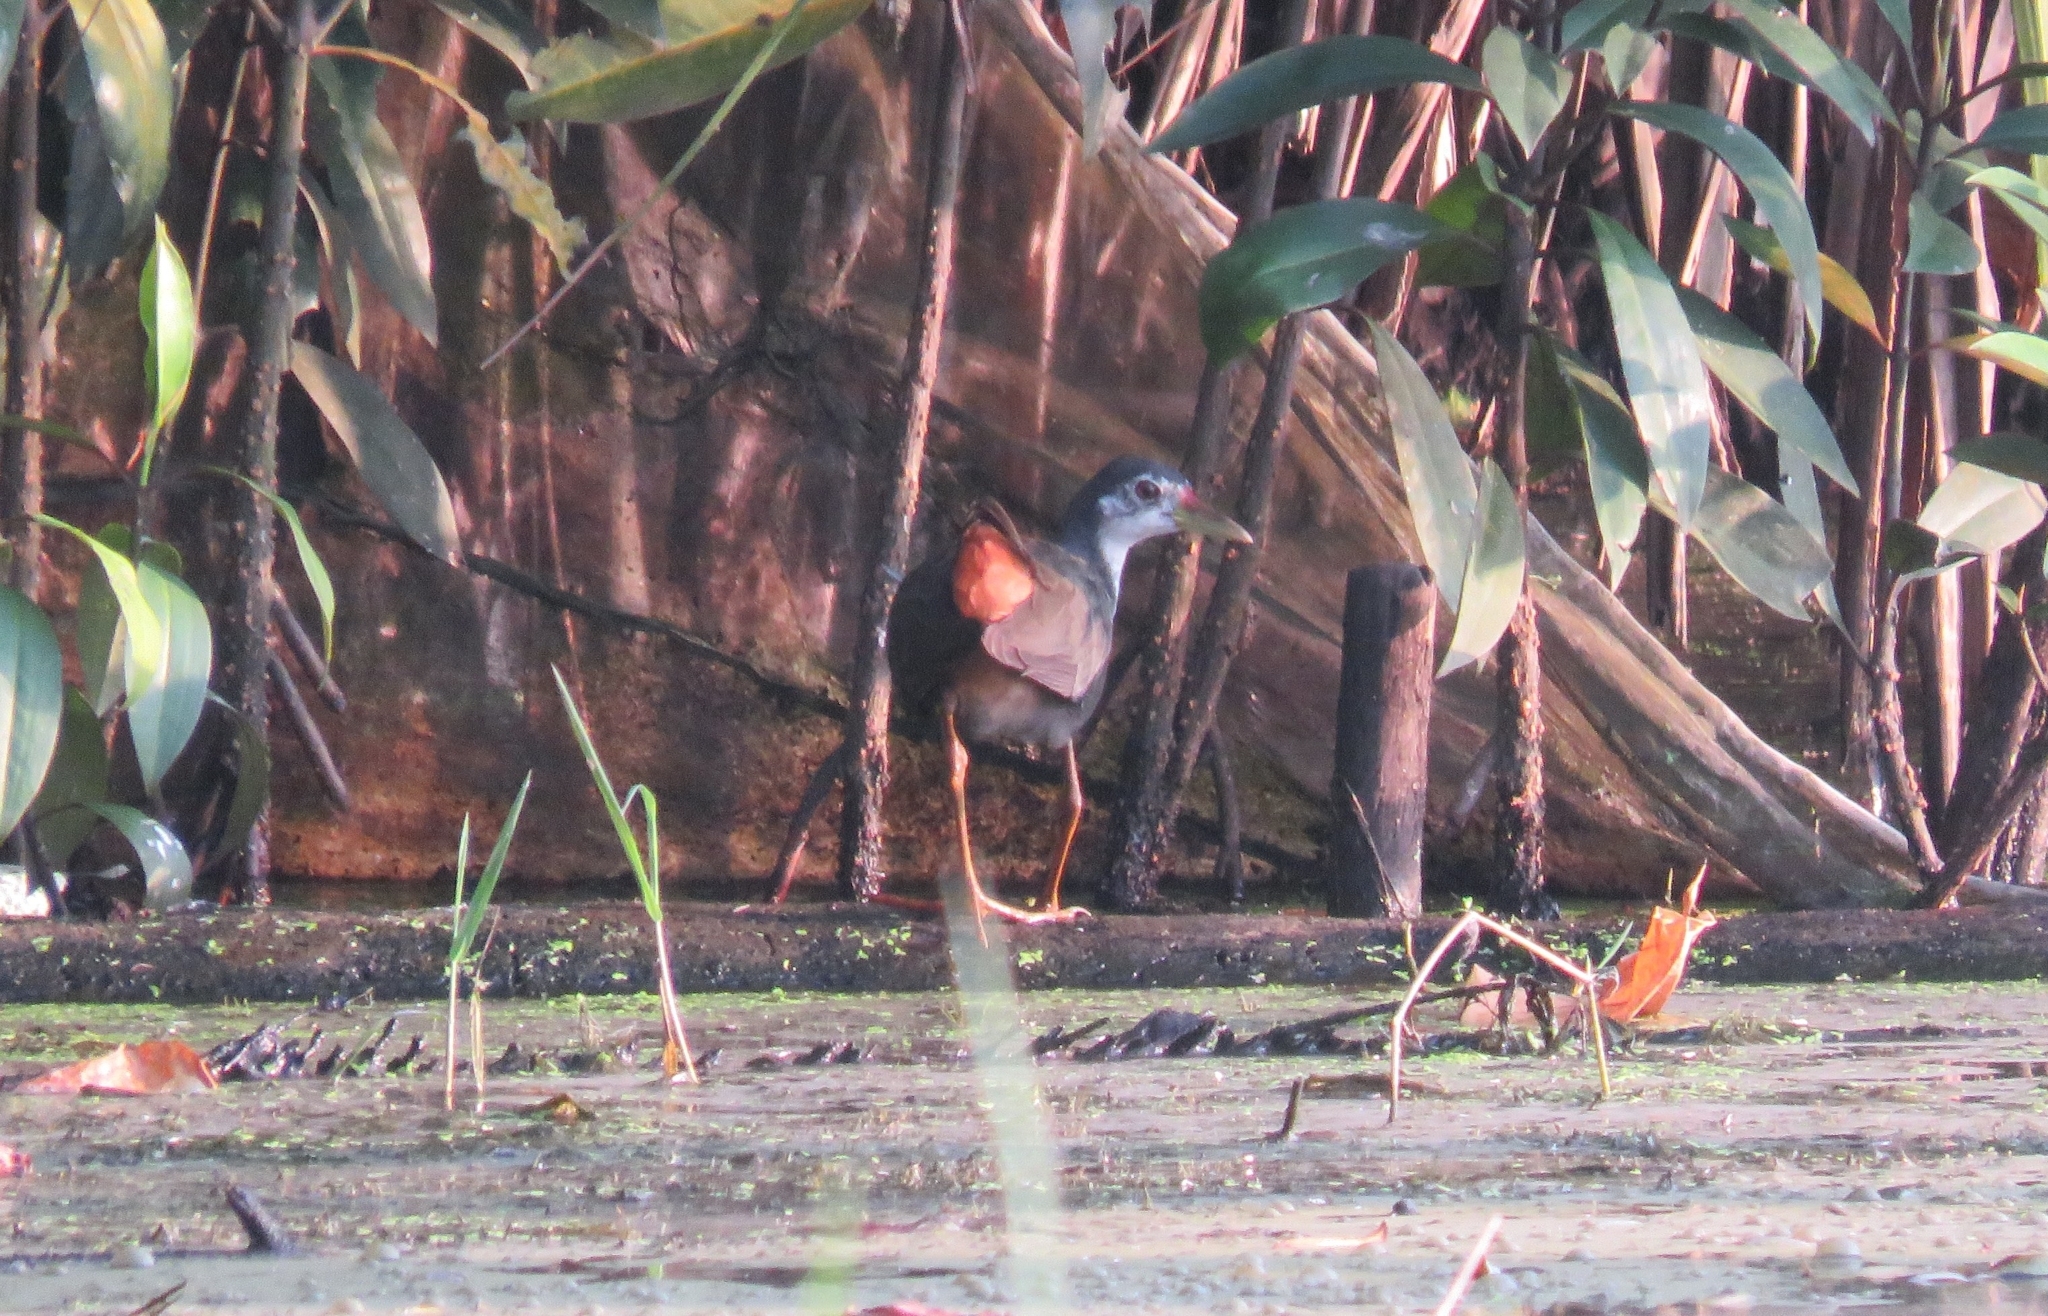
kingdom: Animalia
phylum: Chordata
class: Aves
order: Gruiformes
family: Rallidae
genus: Amaurornis
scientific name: Amaurornis phoenicurus
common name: White-breasted waterhen
